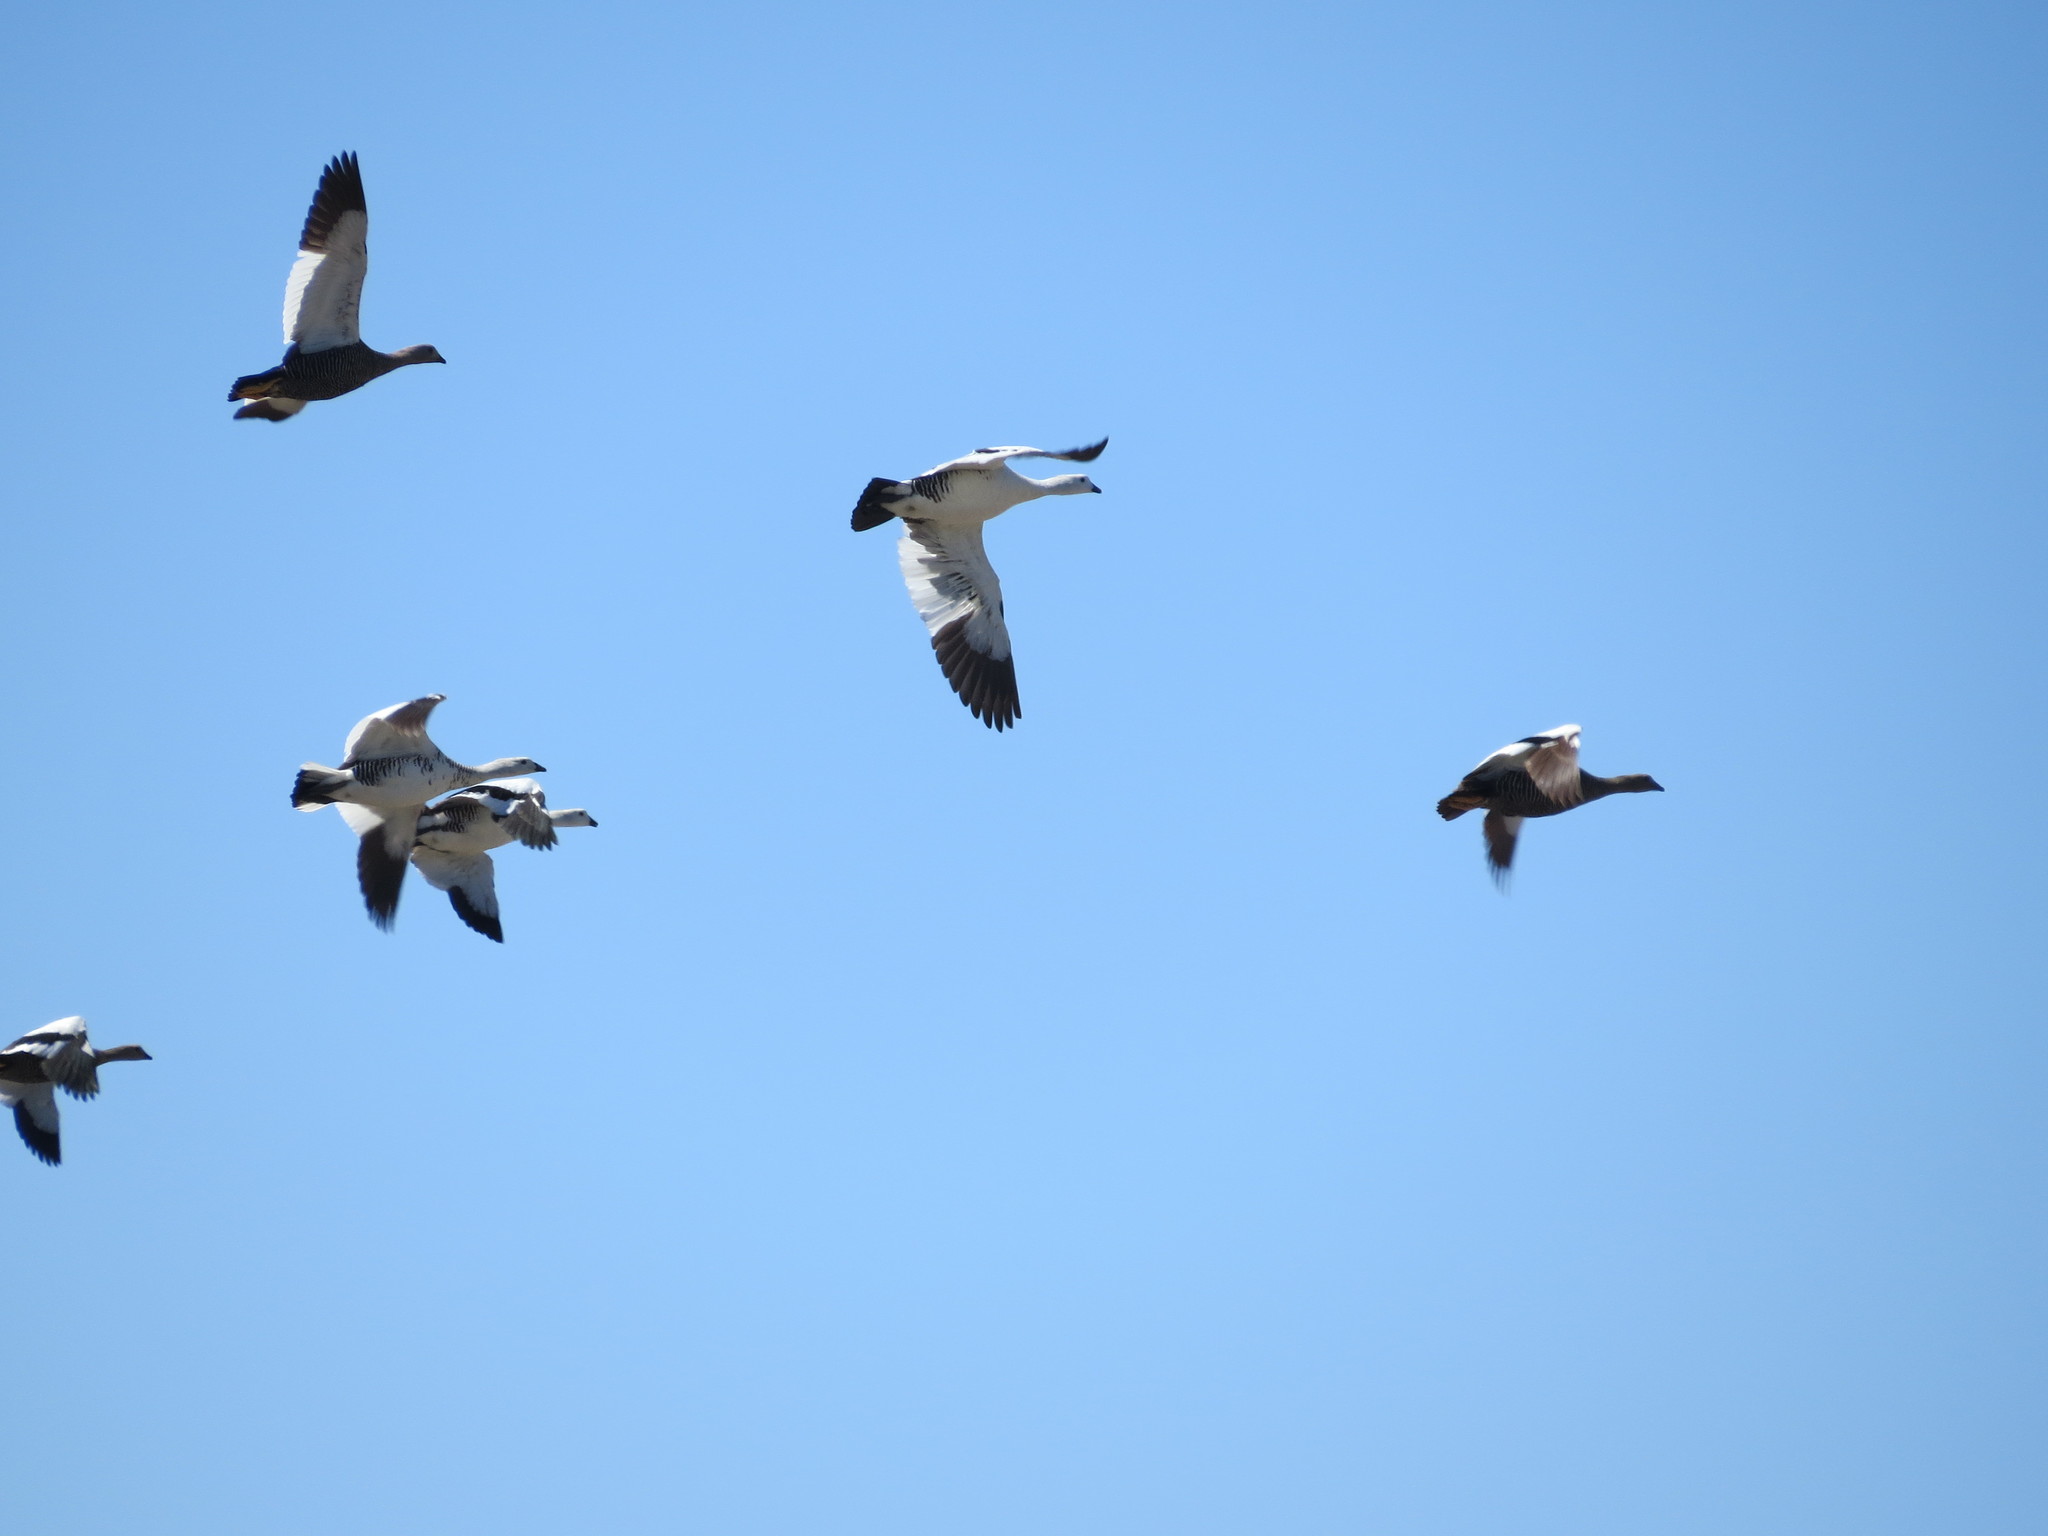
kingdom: Animalia
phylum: Chordata
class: Aves
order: Anseriformes
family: Anatidae
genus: Chloephaga
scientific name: Chloephaga picta
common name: Upland goose
